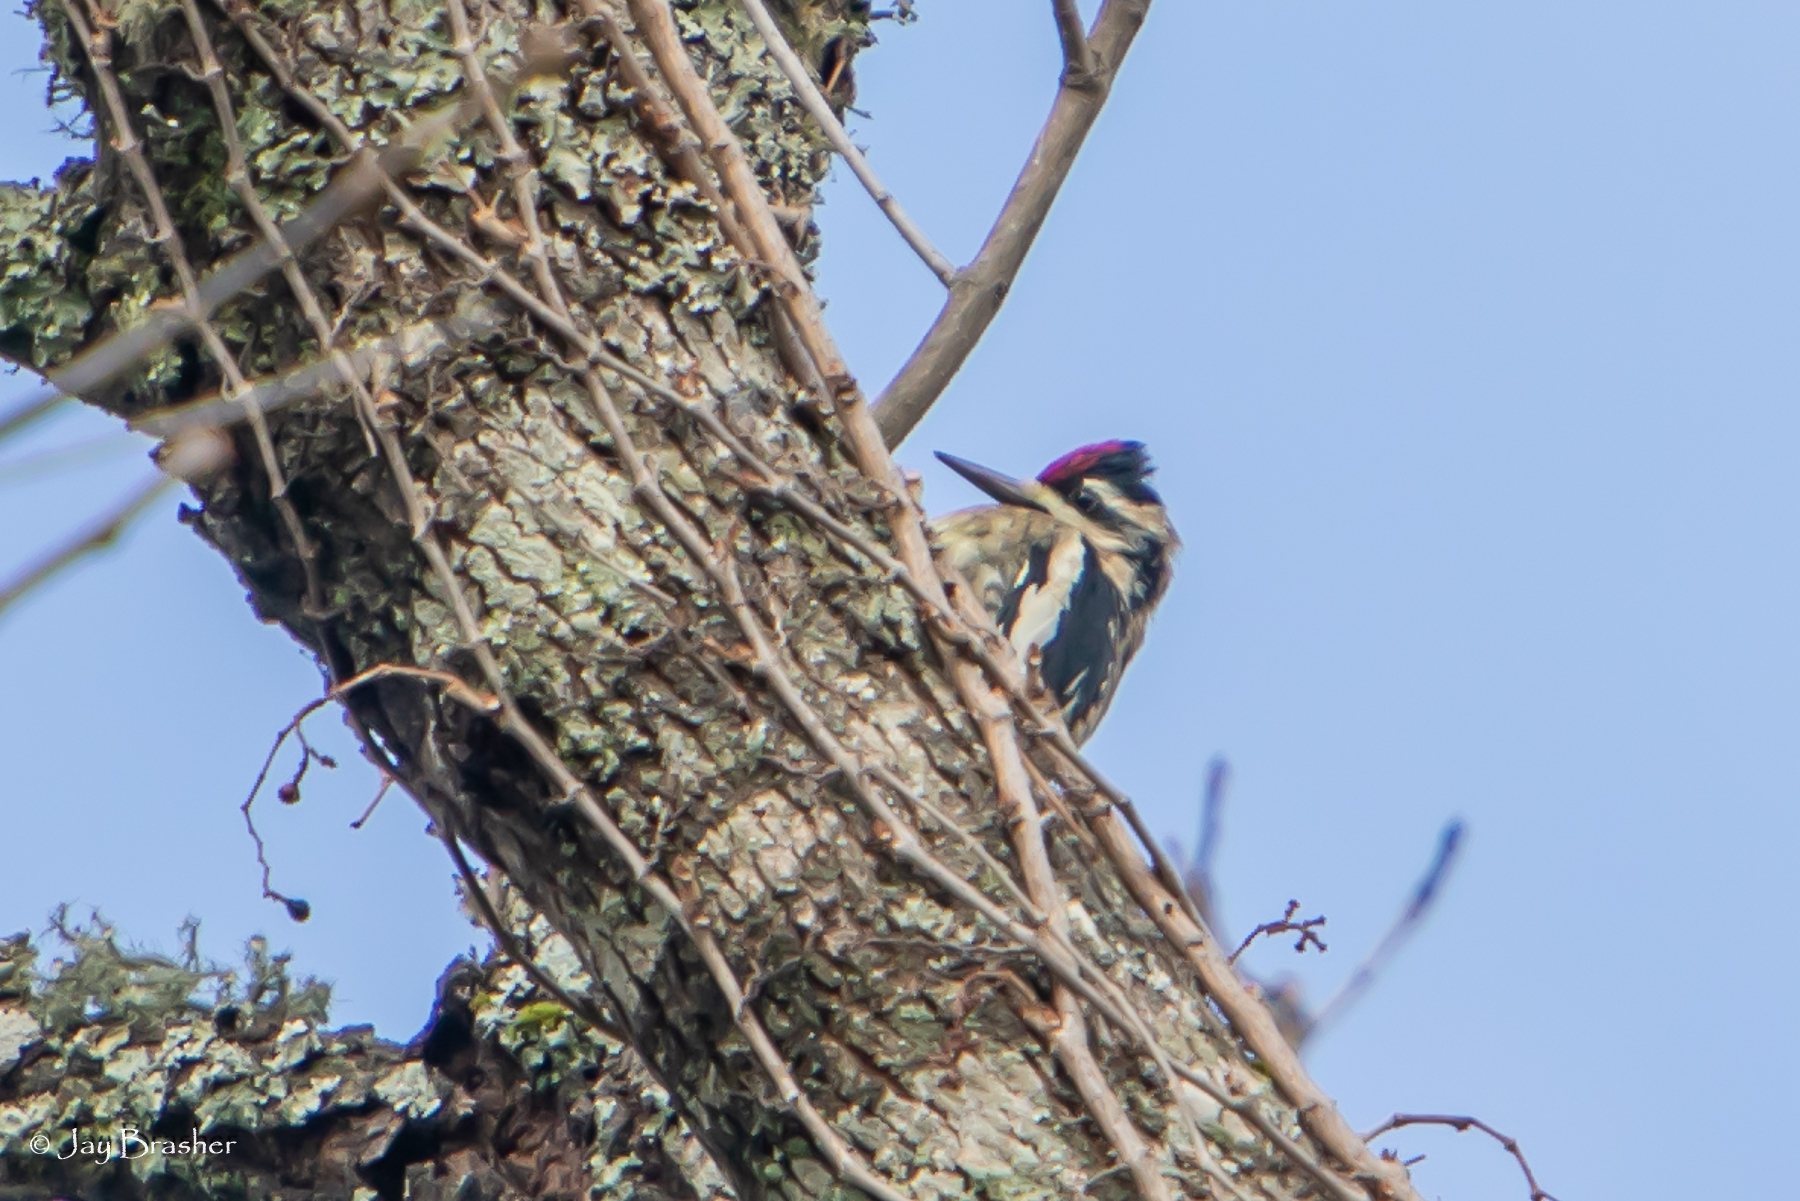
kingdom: Animalia
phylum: Chordata
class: Aves
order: Piciformes
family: Picidae
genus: Sphyrapicus
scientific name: Sphyrapicus varius
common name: Yellow-bellied sapsucker
